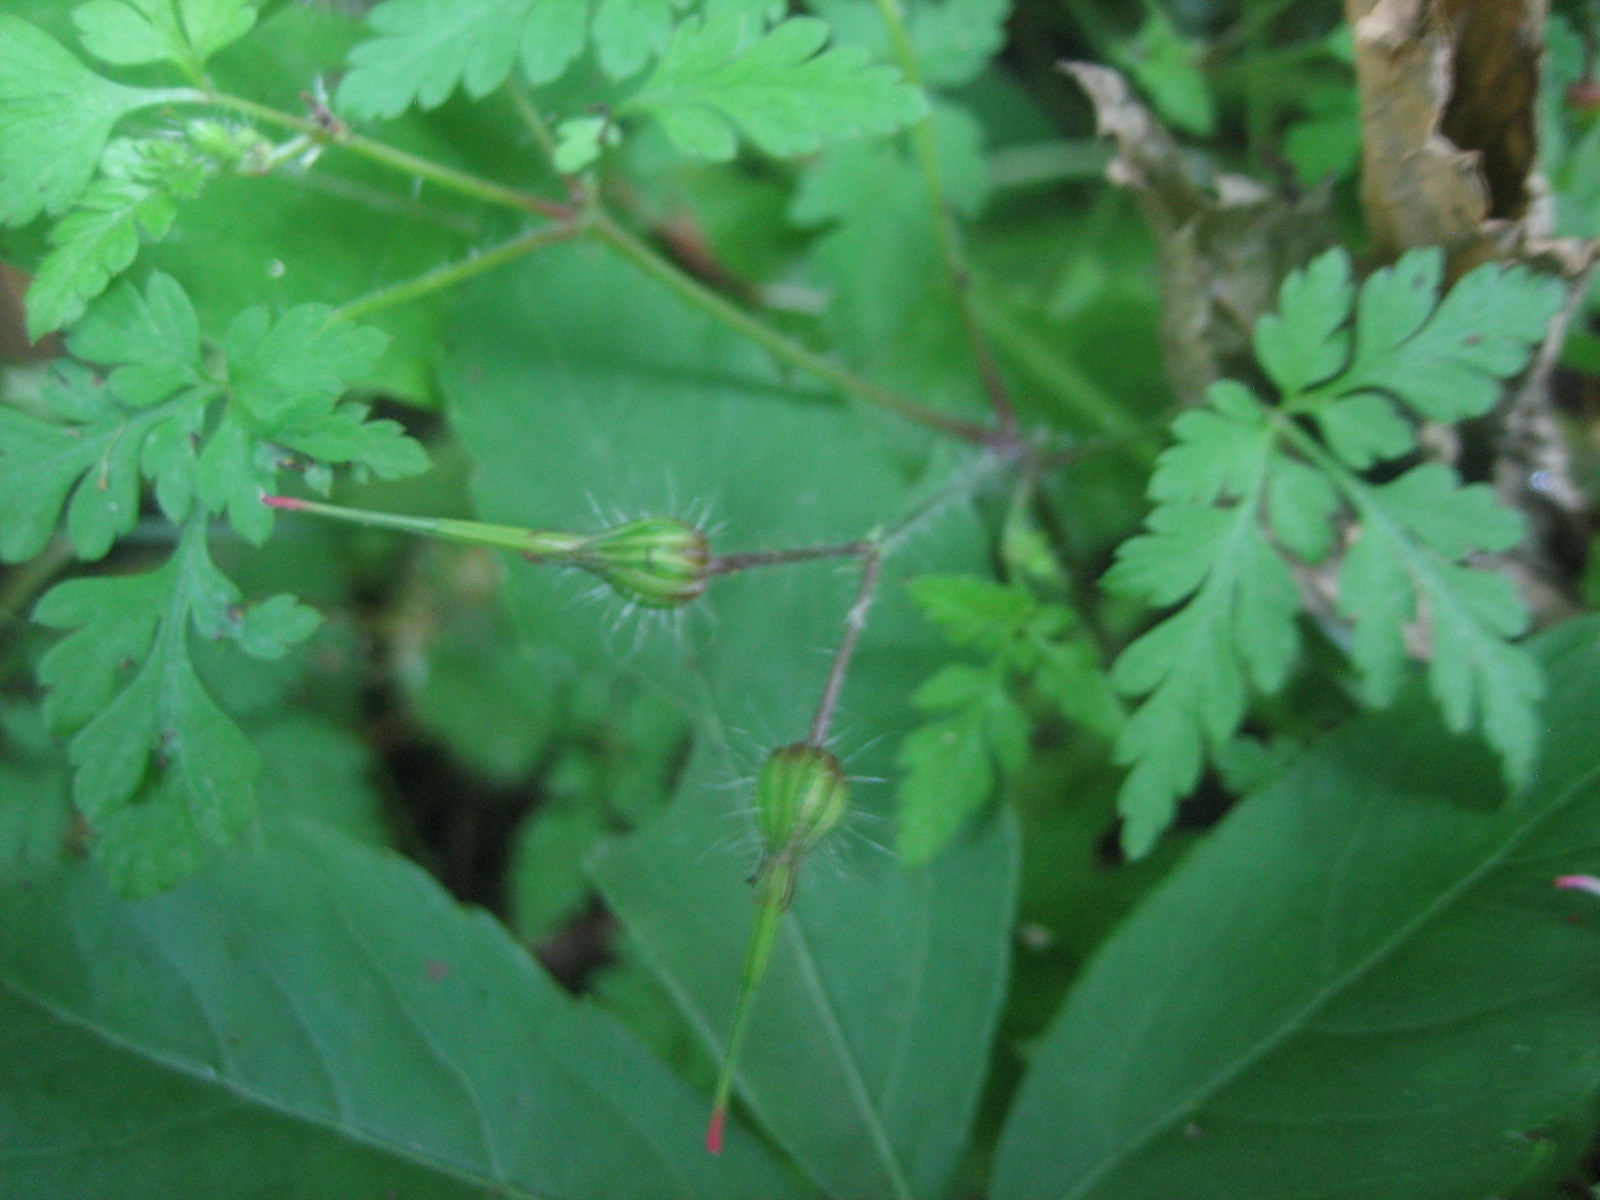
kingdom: Plantae
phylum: Tracheophyta
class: Magnoliopsida
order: Geraniales
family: Geraniaceae
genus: Geranium
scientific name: Geranium robertianum
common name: Herb-robert
